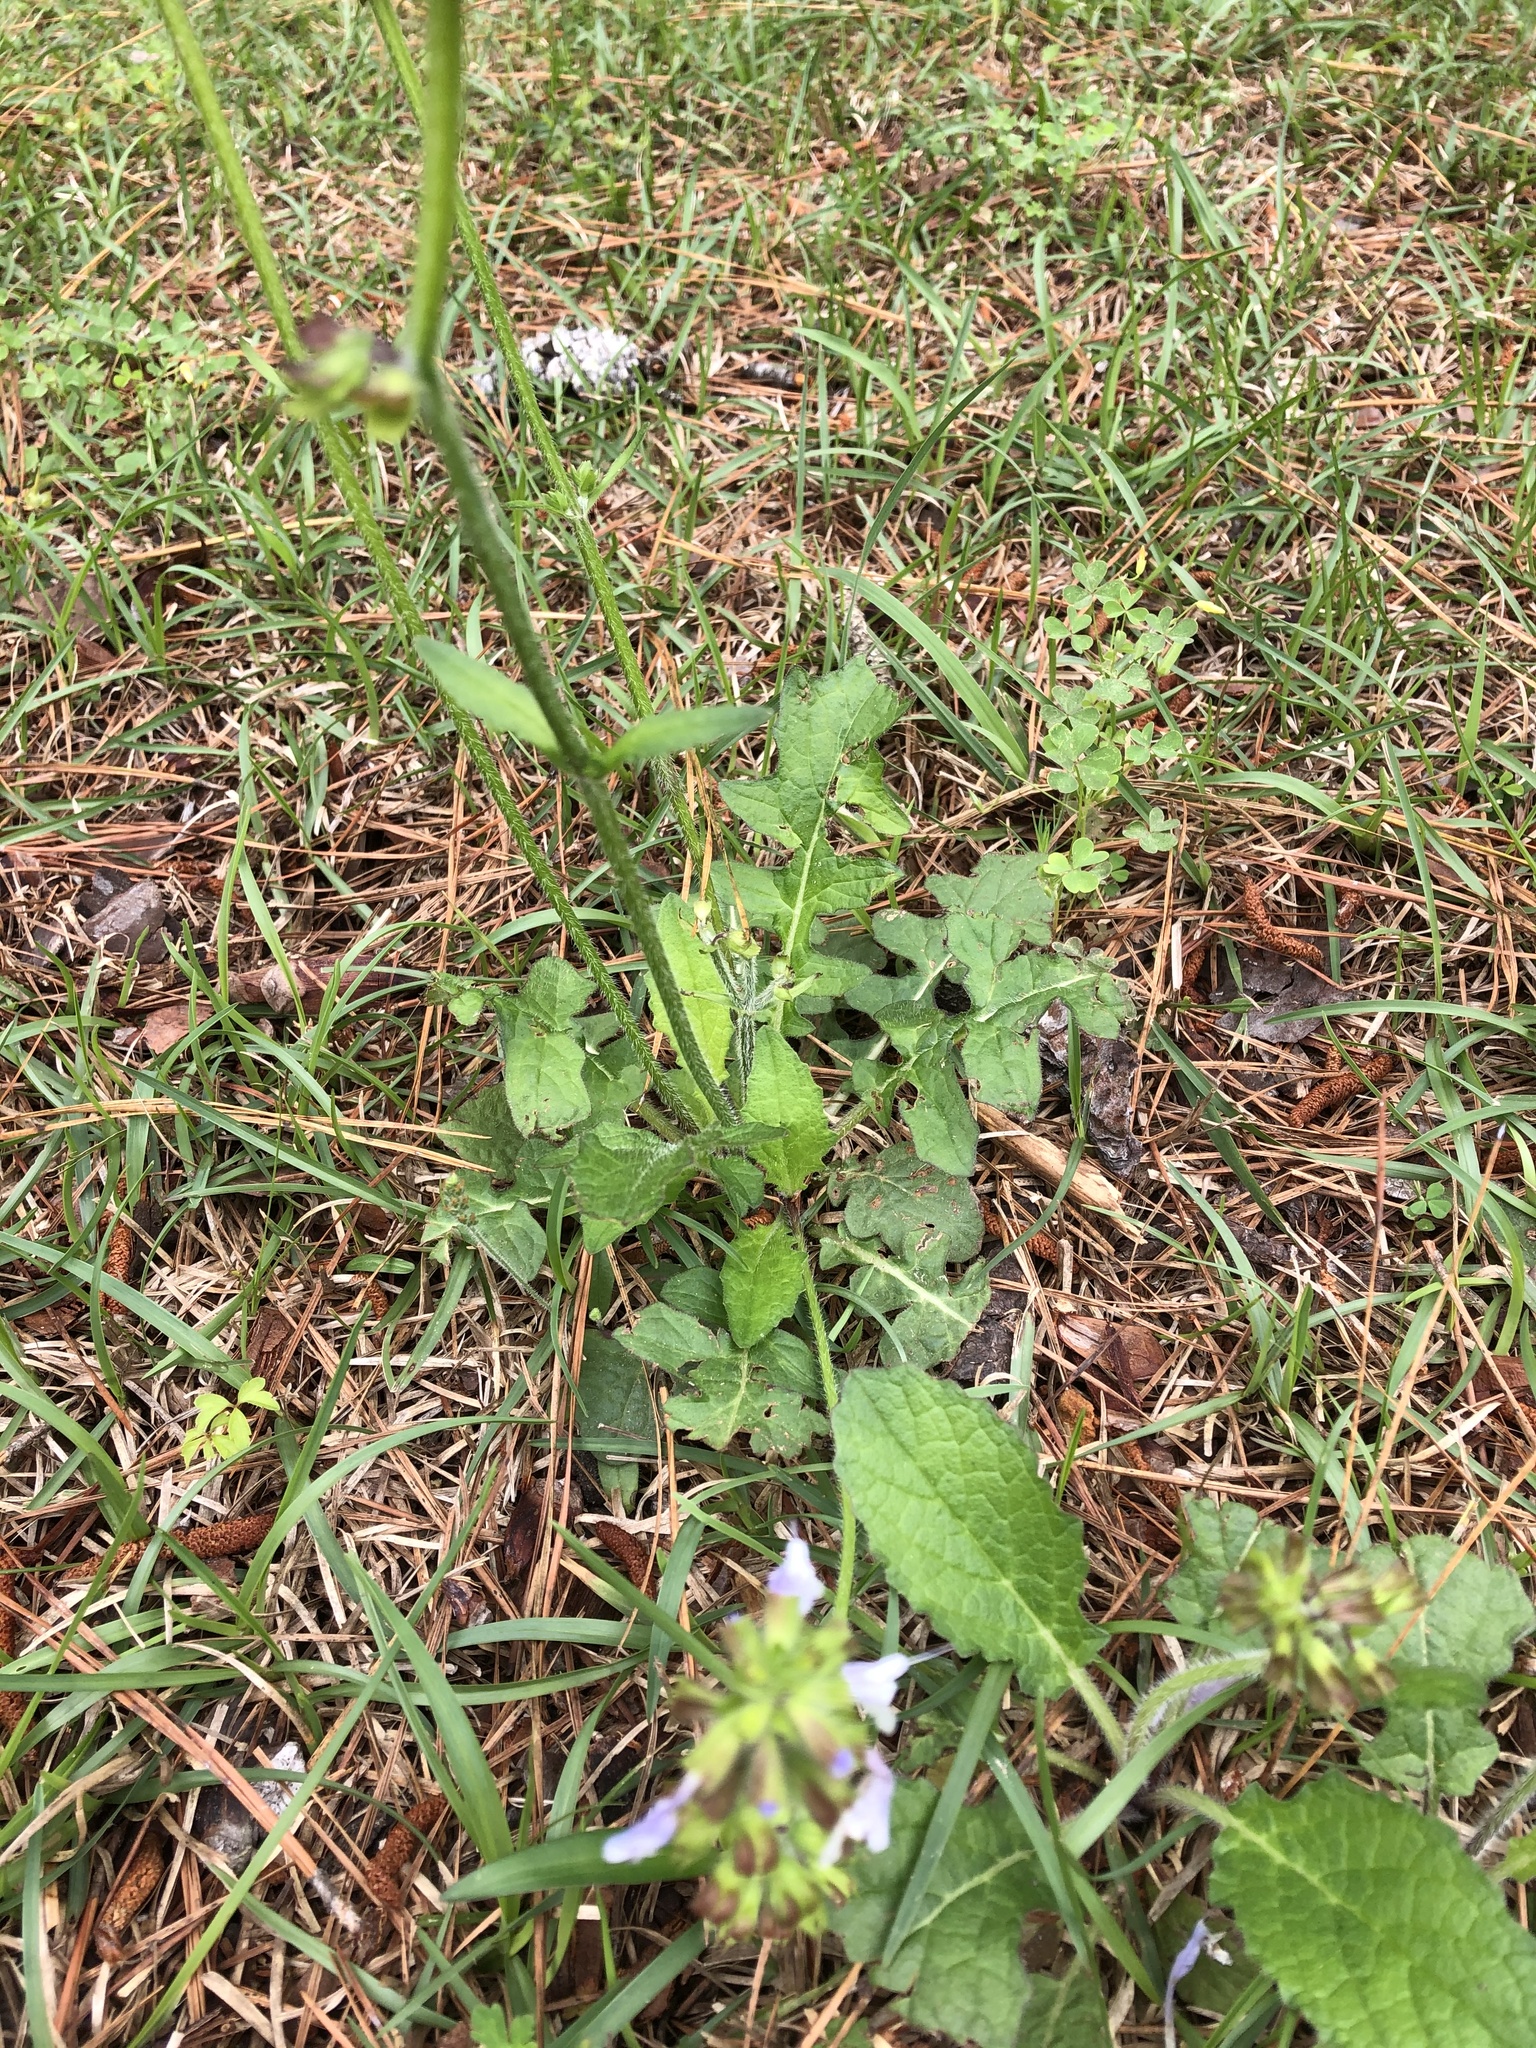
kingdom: Plantae
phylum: Tracheophyta
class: Magnoliopsida
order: Lamiales
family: Lamiaceae
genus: Salvia
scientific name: Salvia lyrata
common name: Cancerweed
